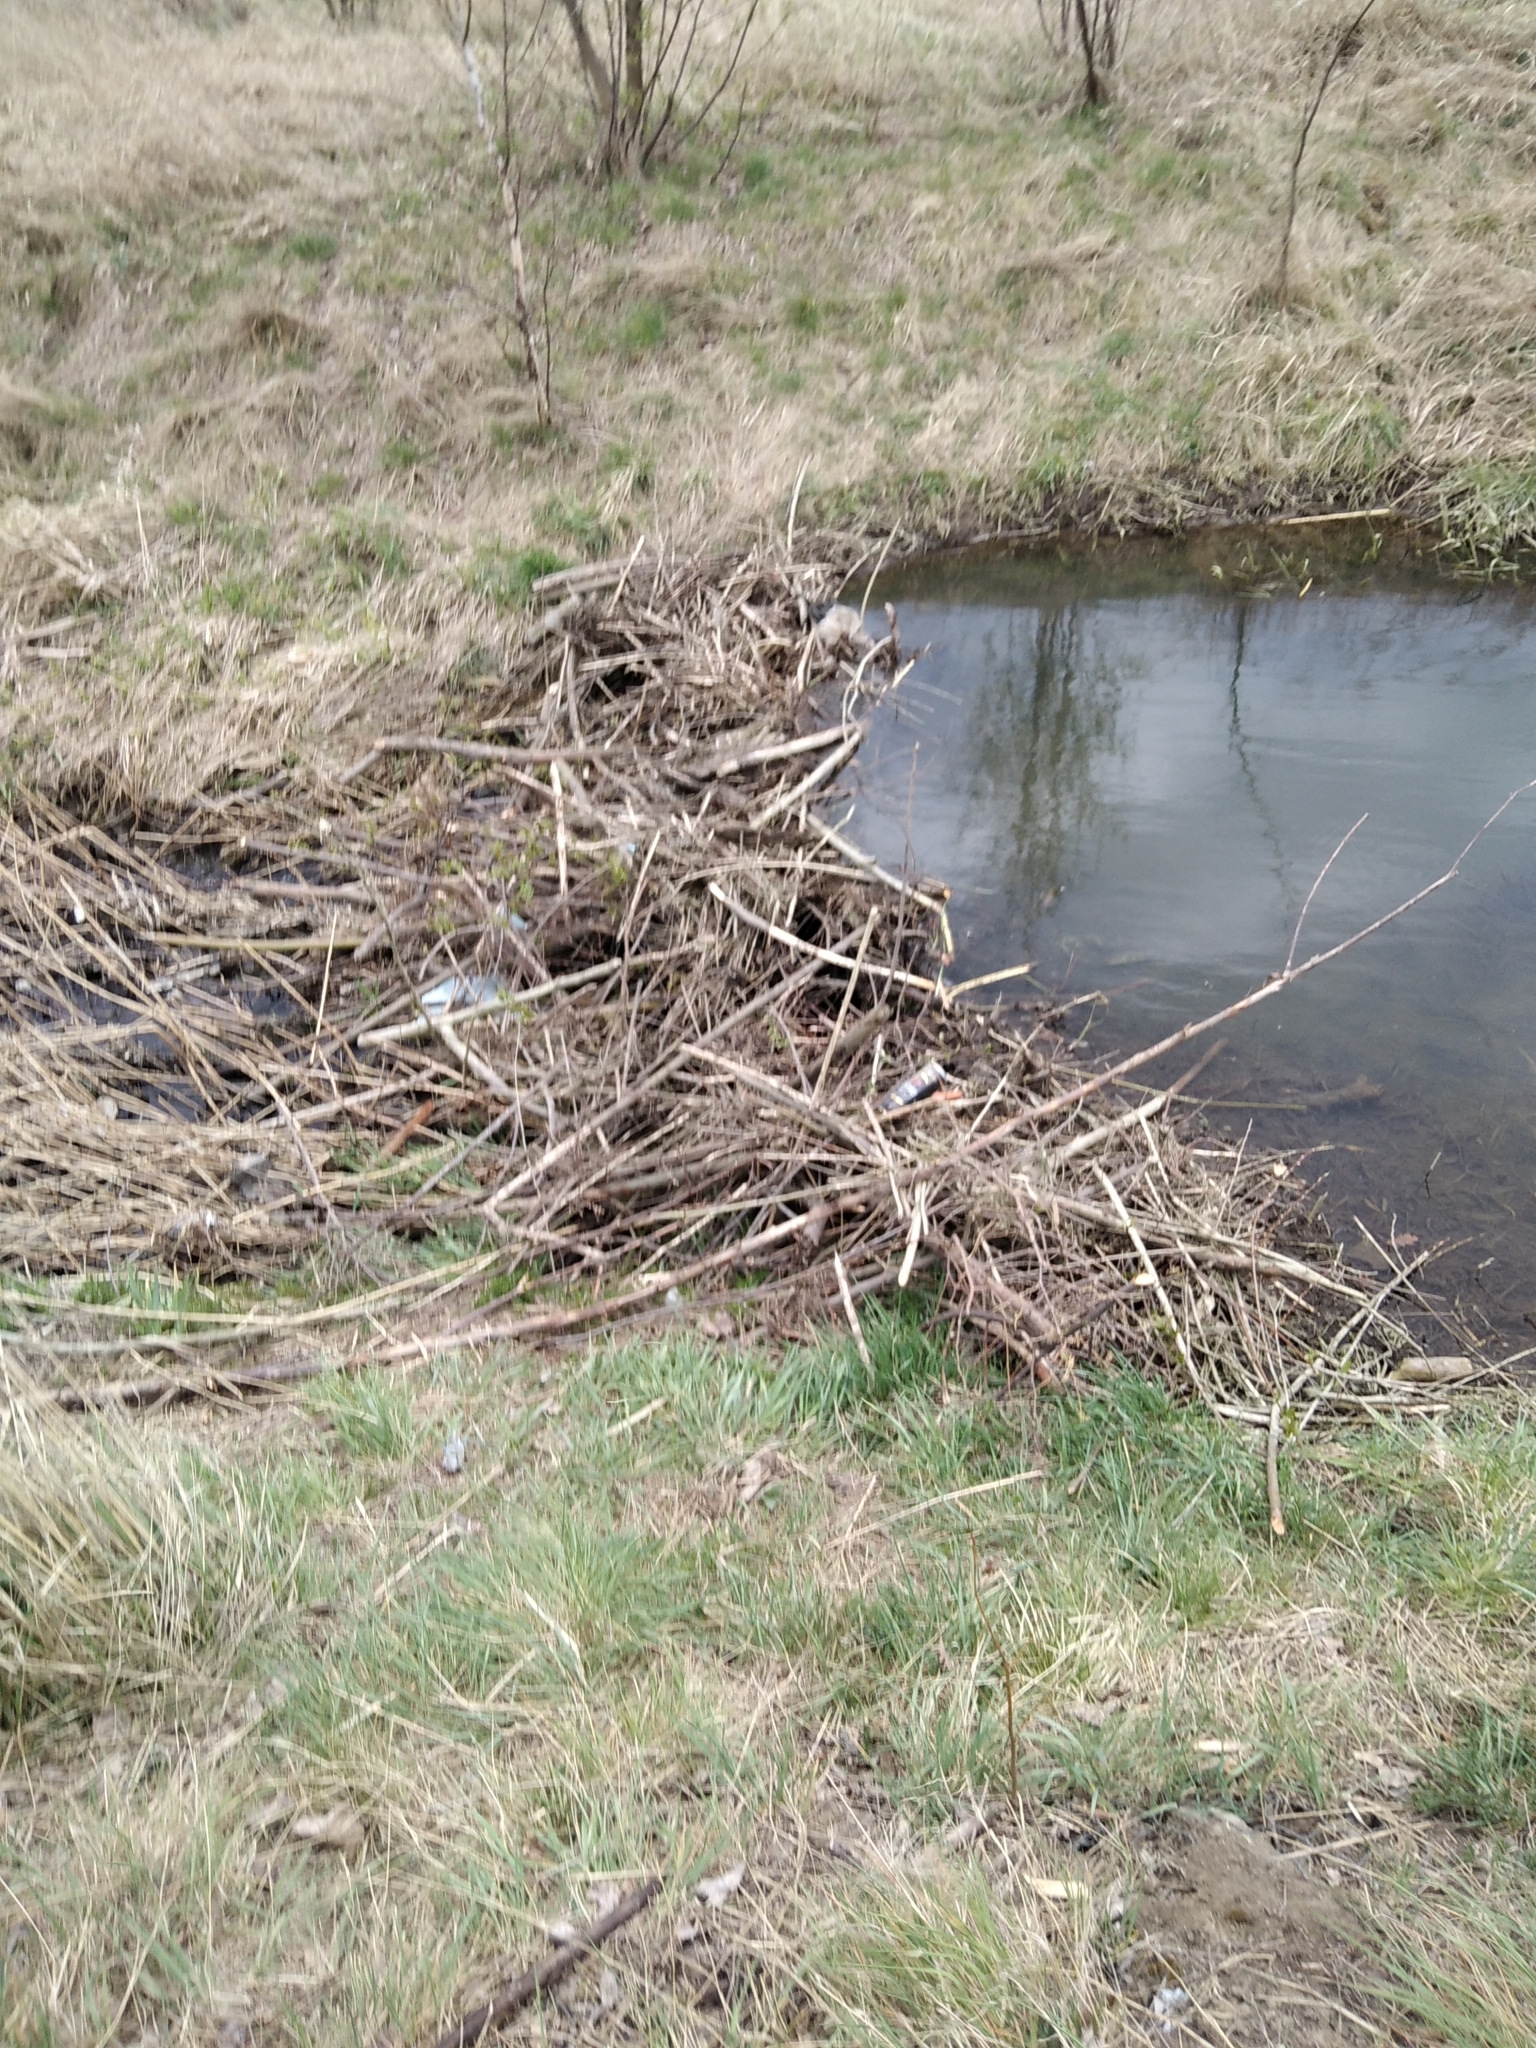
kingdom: Animalia
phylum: Chordata
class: Mammalia
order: Rodentia
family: Castoridae
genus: Castor
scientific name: Castor fiber
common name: Eurasian beaver
